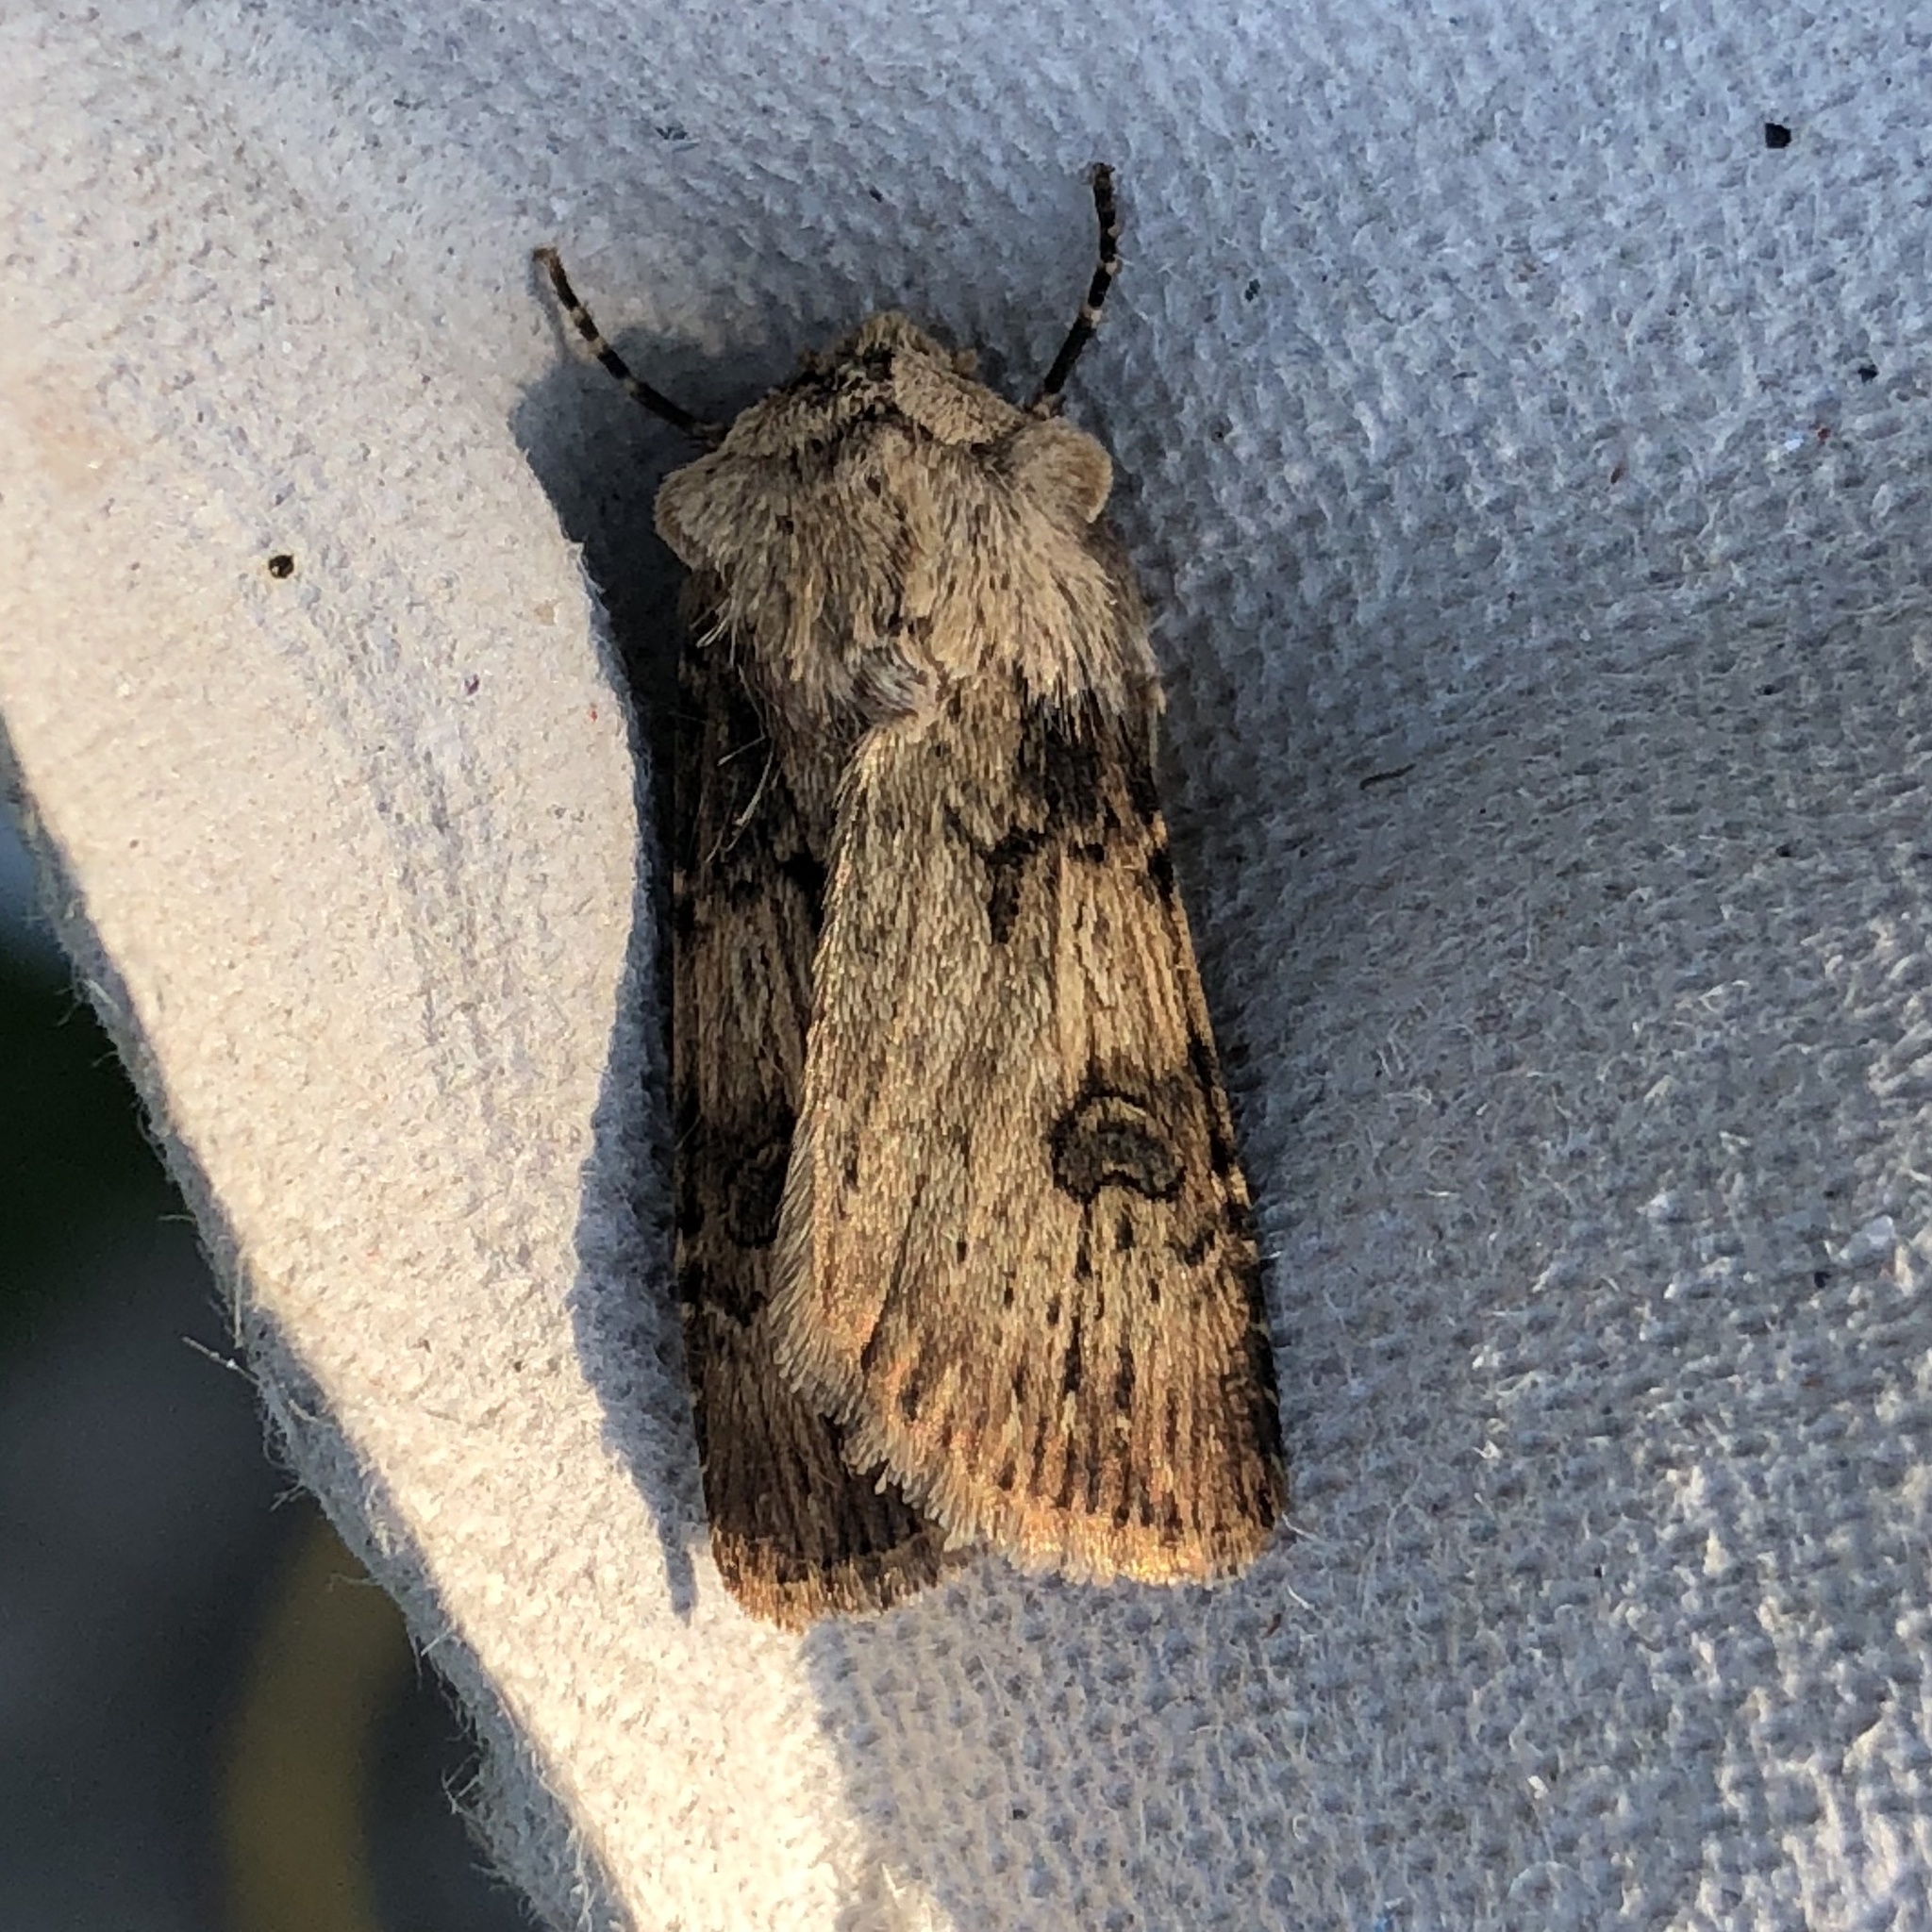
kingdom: Animalia
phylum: Arthropoda
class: Insecta
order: Lepidoptera
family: Noctuidae
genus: Agrotis
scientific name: Agrotis puta
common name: Shuttle-shaped dart
